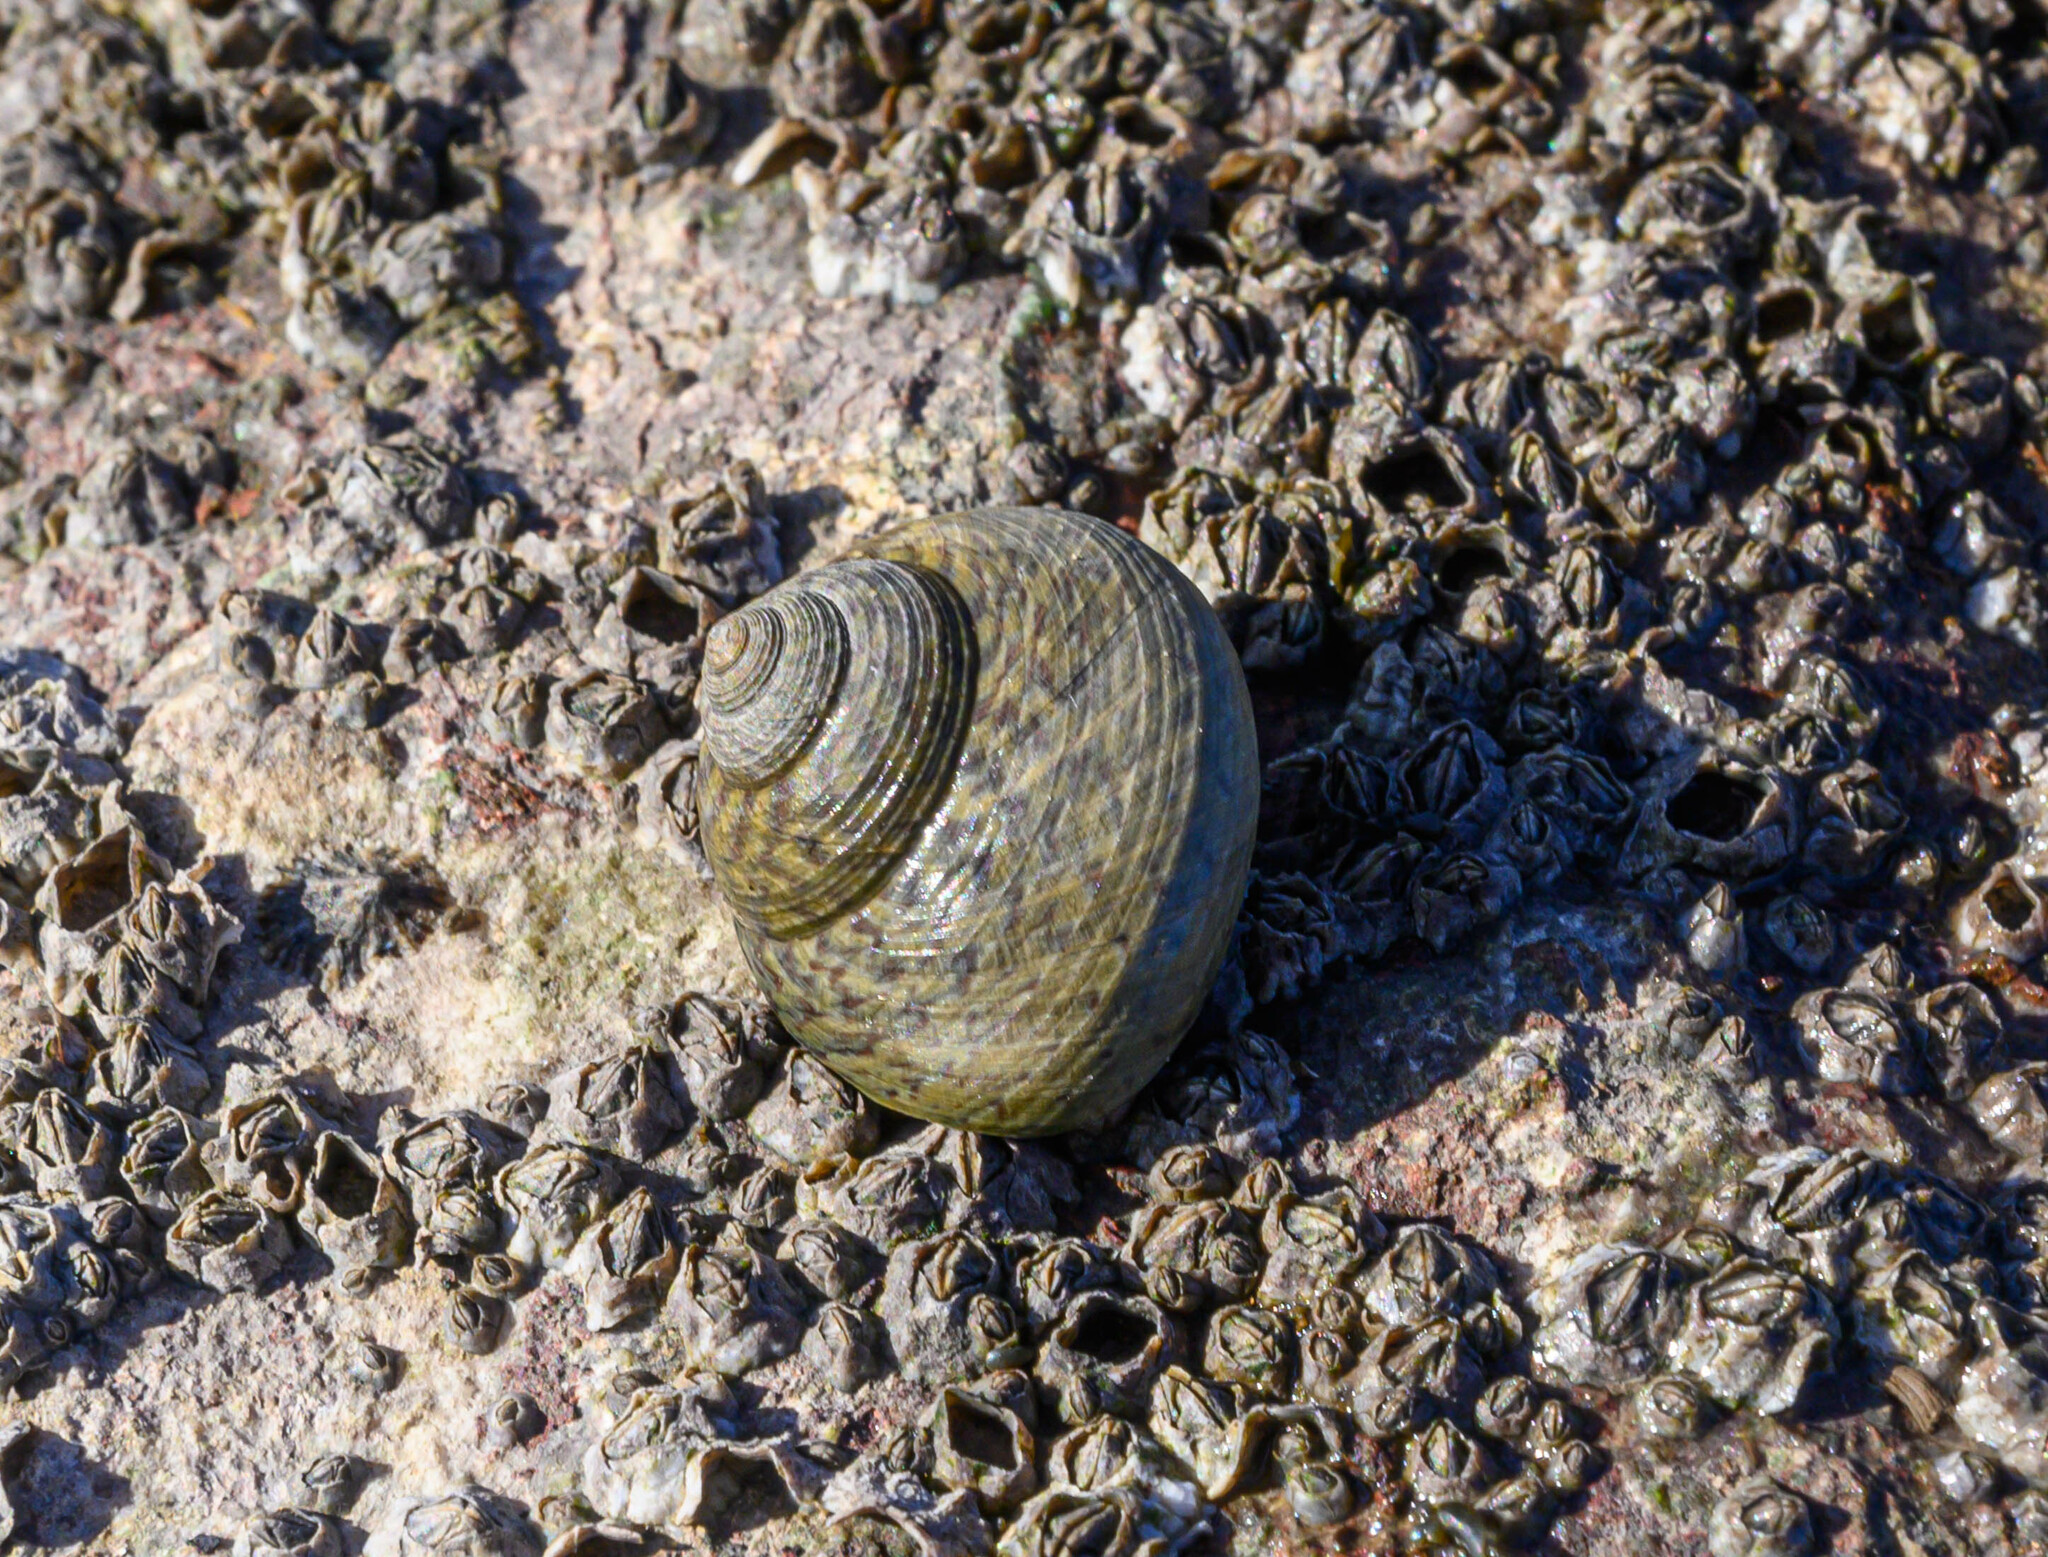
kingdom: Animalia
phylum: Mollusca
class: Gastropoda
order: Trochida
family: Trochidae
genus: Phorcus
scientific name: Phorcus lineatus
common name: Toothed top shell
